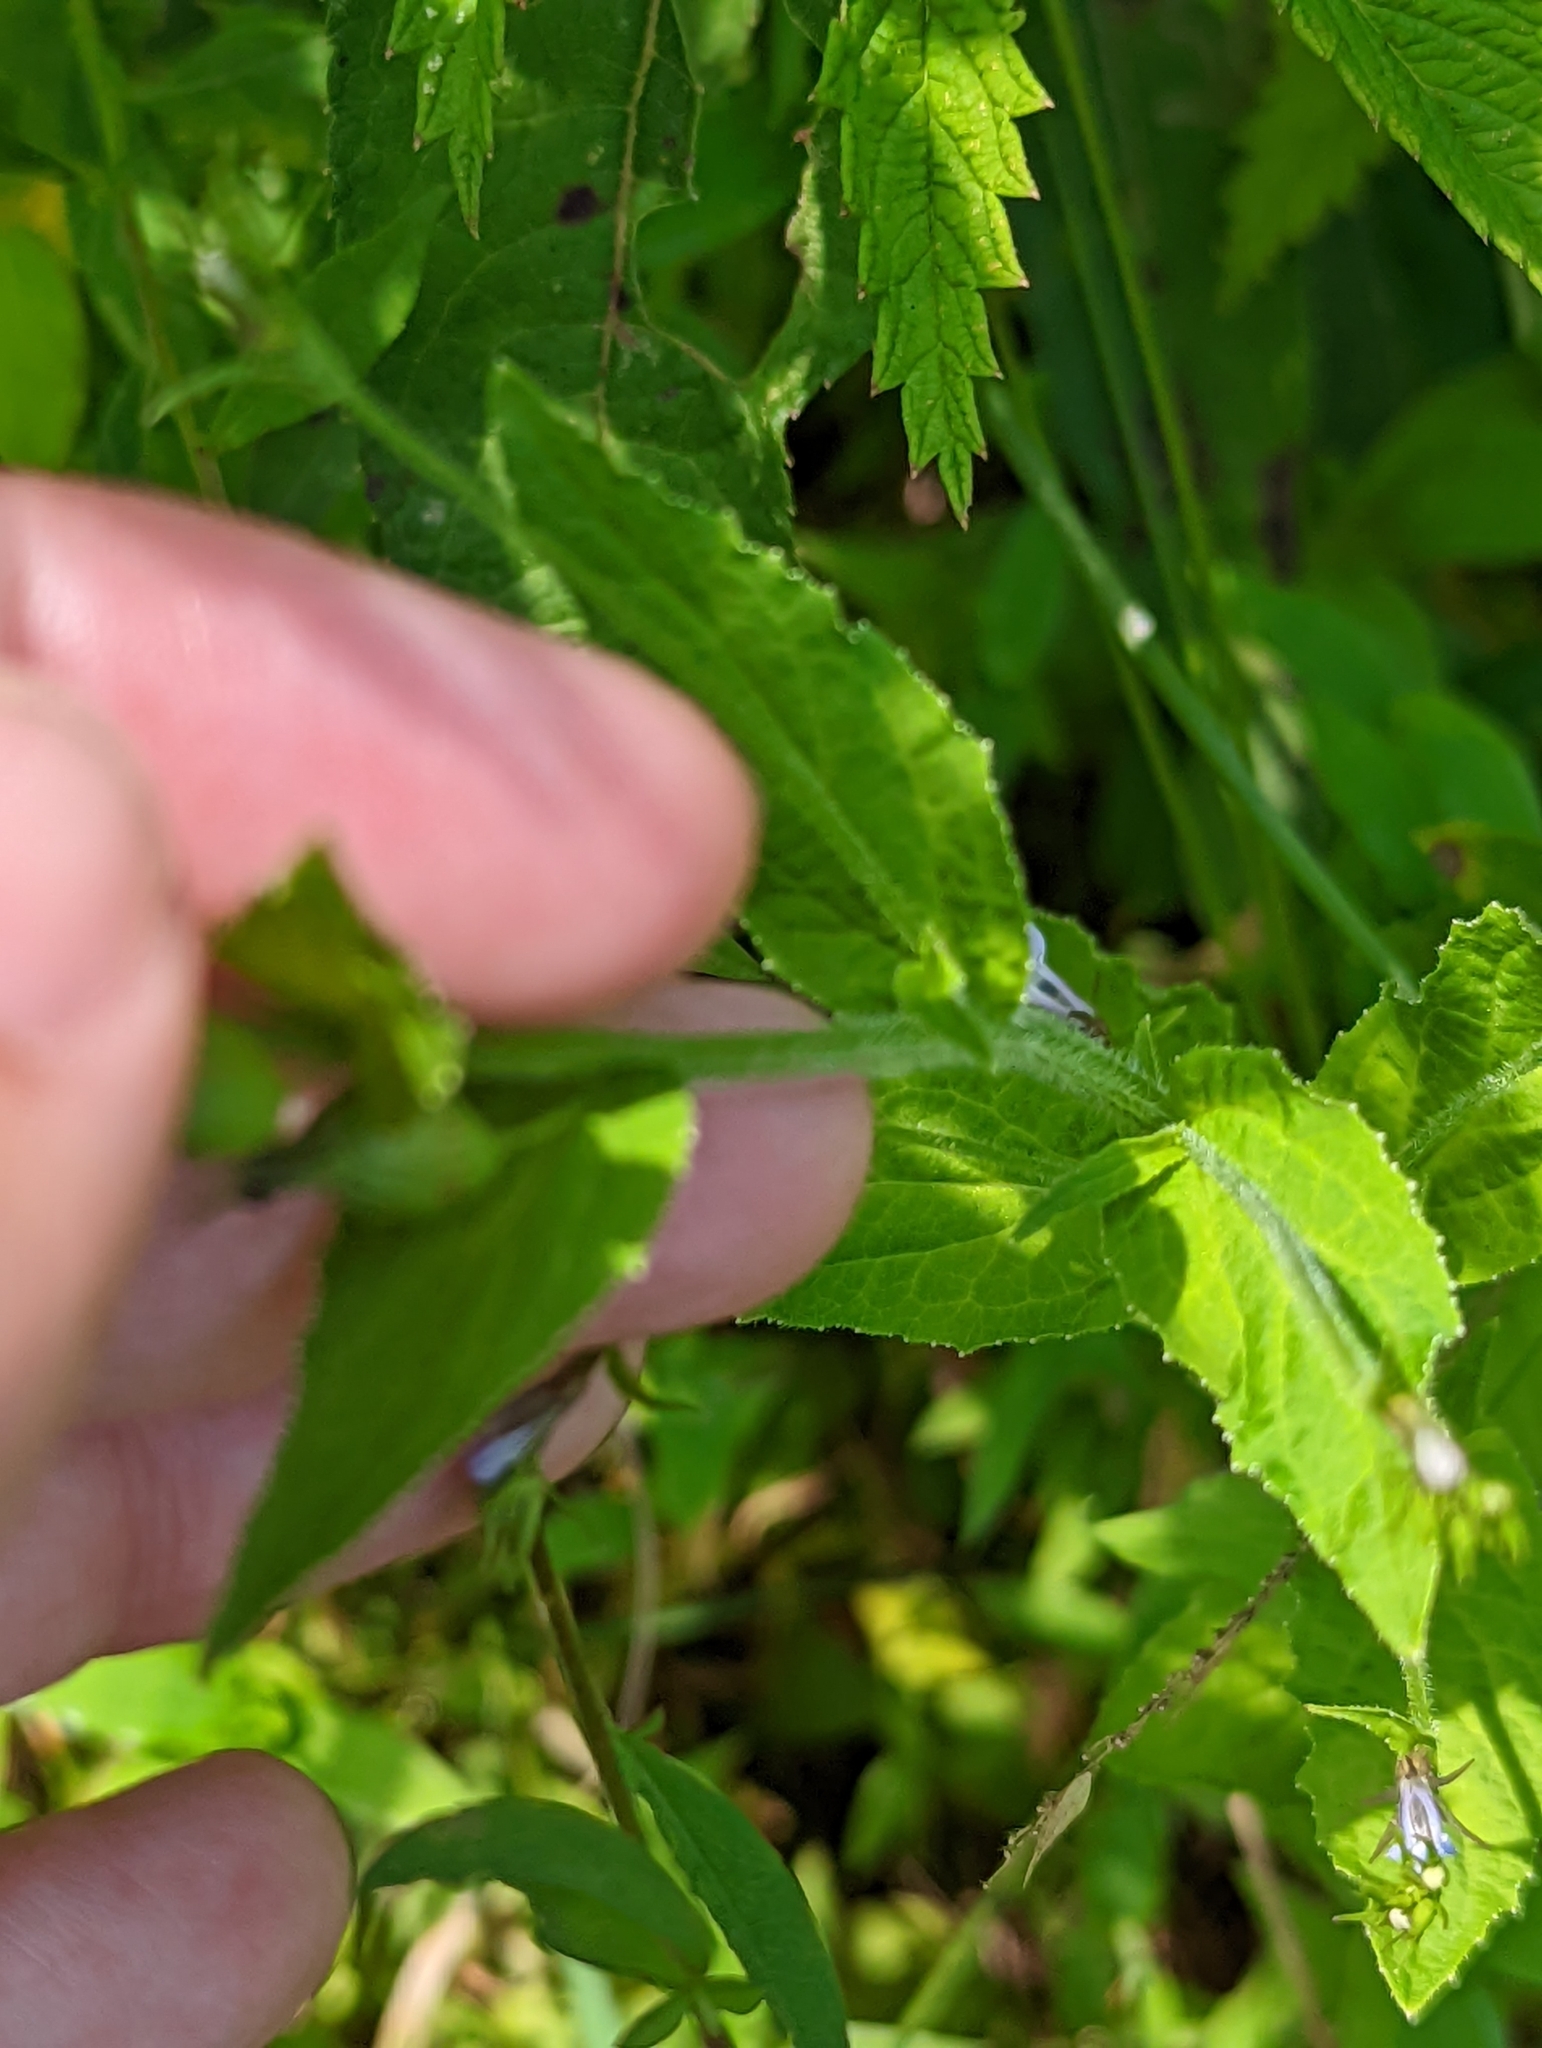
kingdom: Plantae
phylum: Tracheophyta
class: Magnoliopsida
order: Asterales
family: Campanulaceae
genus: Lobelia
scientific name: Lobelia inflata
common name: Indian tobacco
